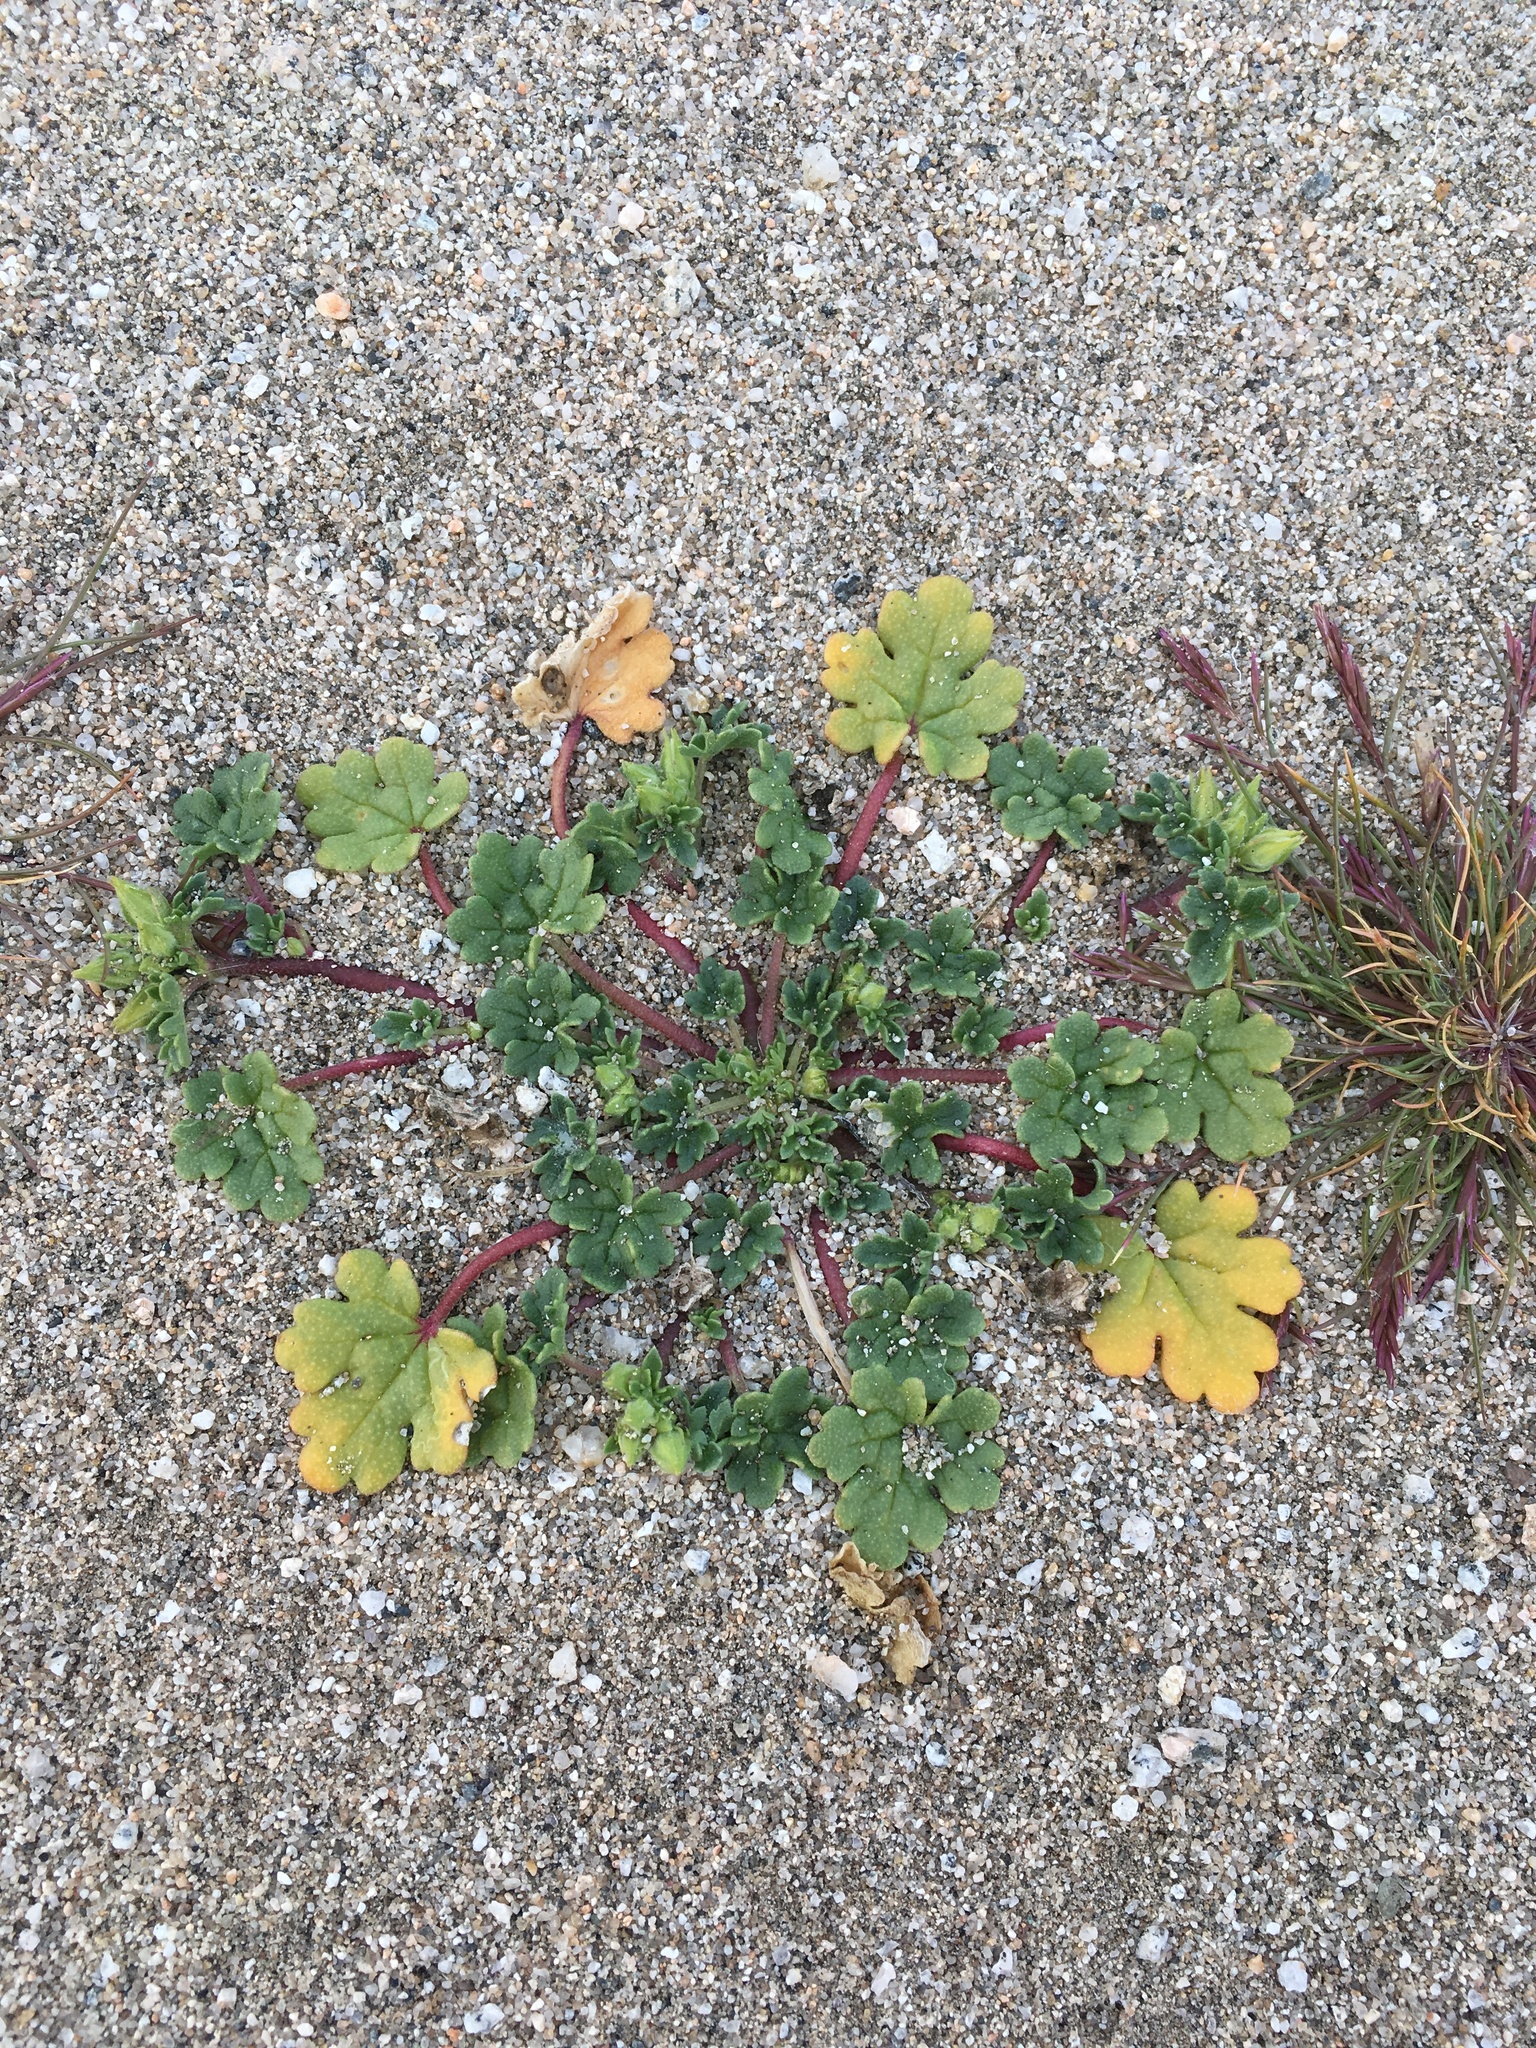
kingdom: Plantae
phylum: Tracheophyta
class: Magnoliopsida
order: Malvales
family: Malvaceae
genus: Eremalche
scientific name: Eremalche exilis
